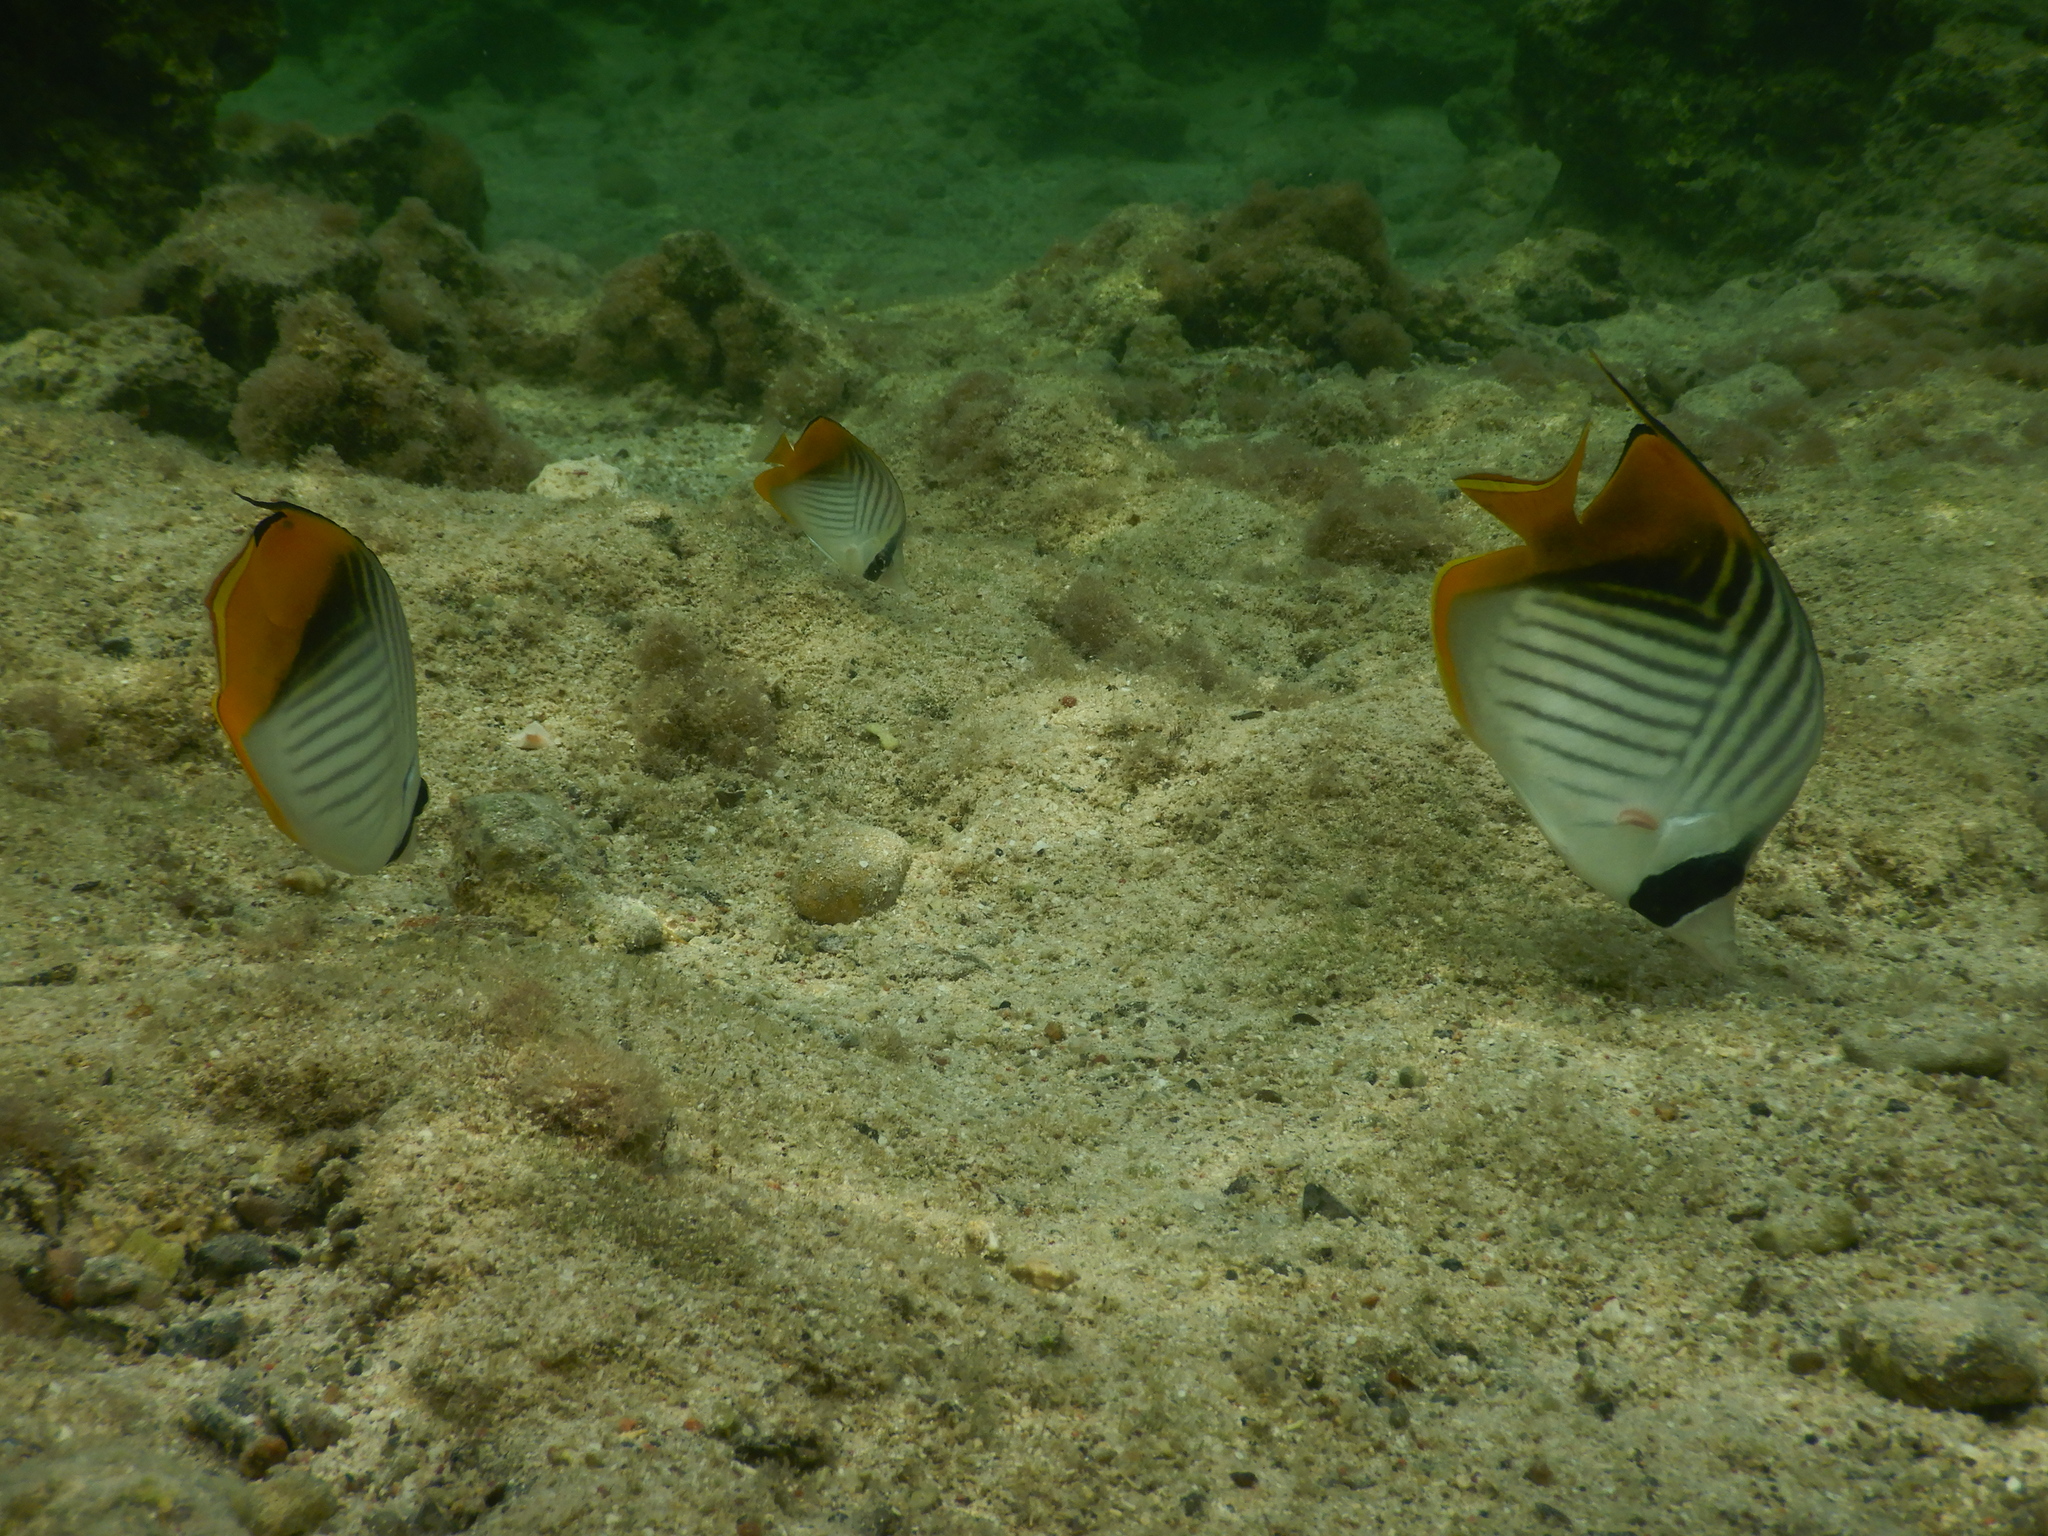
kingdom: Animalia
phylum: Chordata
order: Perciformes
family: Chaetodontidae
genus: Chaetodon
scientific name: Chaetodon auriga
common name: Threadfin butterflyfish
